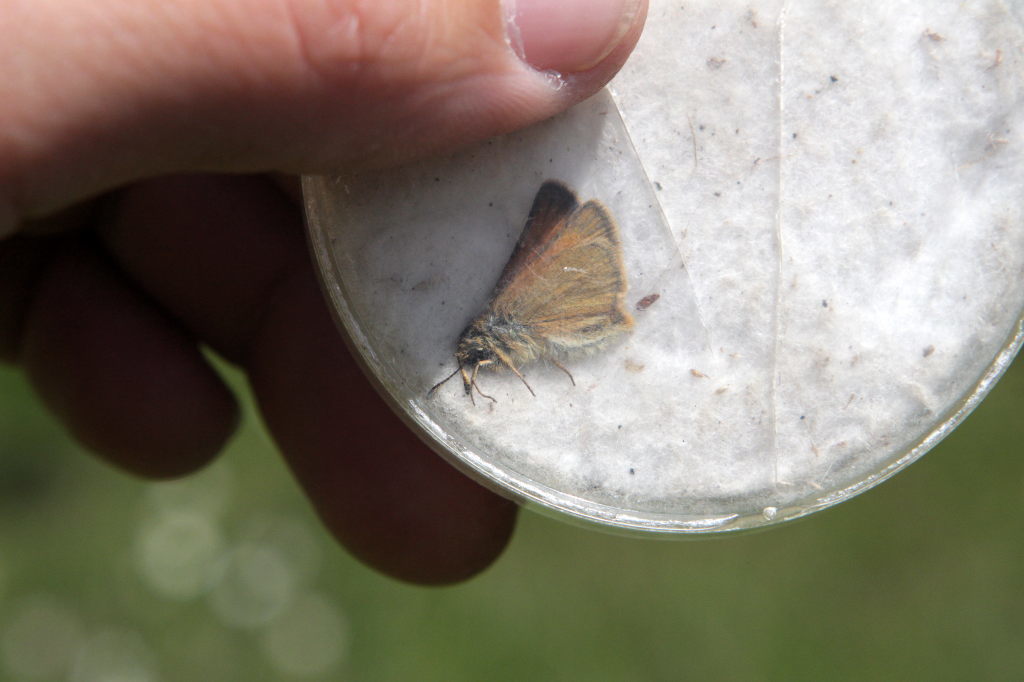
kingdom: Animalia
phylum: Arthropoda
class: Insecta
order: Lepidoptera
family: Hesperiidae
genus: Thymelicus
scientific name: Thymelicus lineola
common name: Essex skipper
